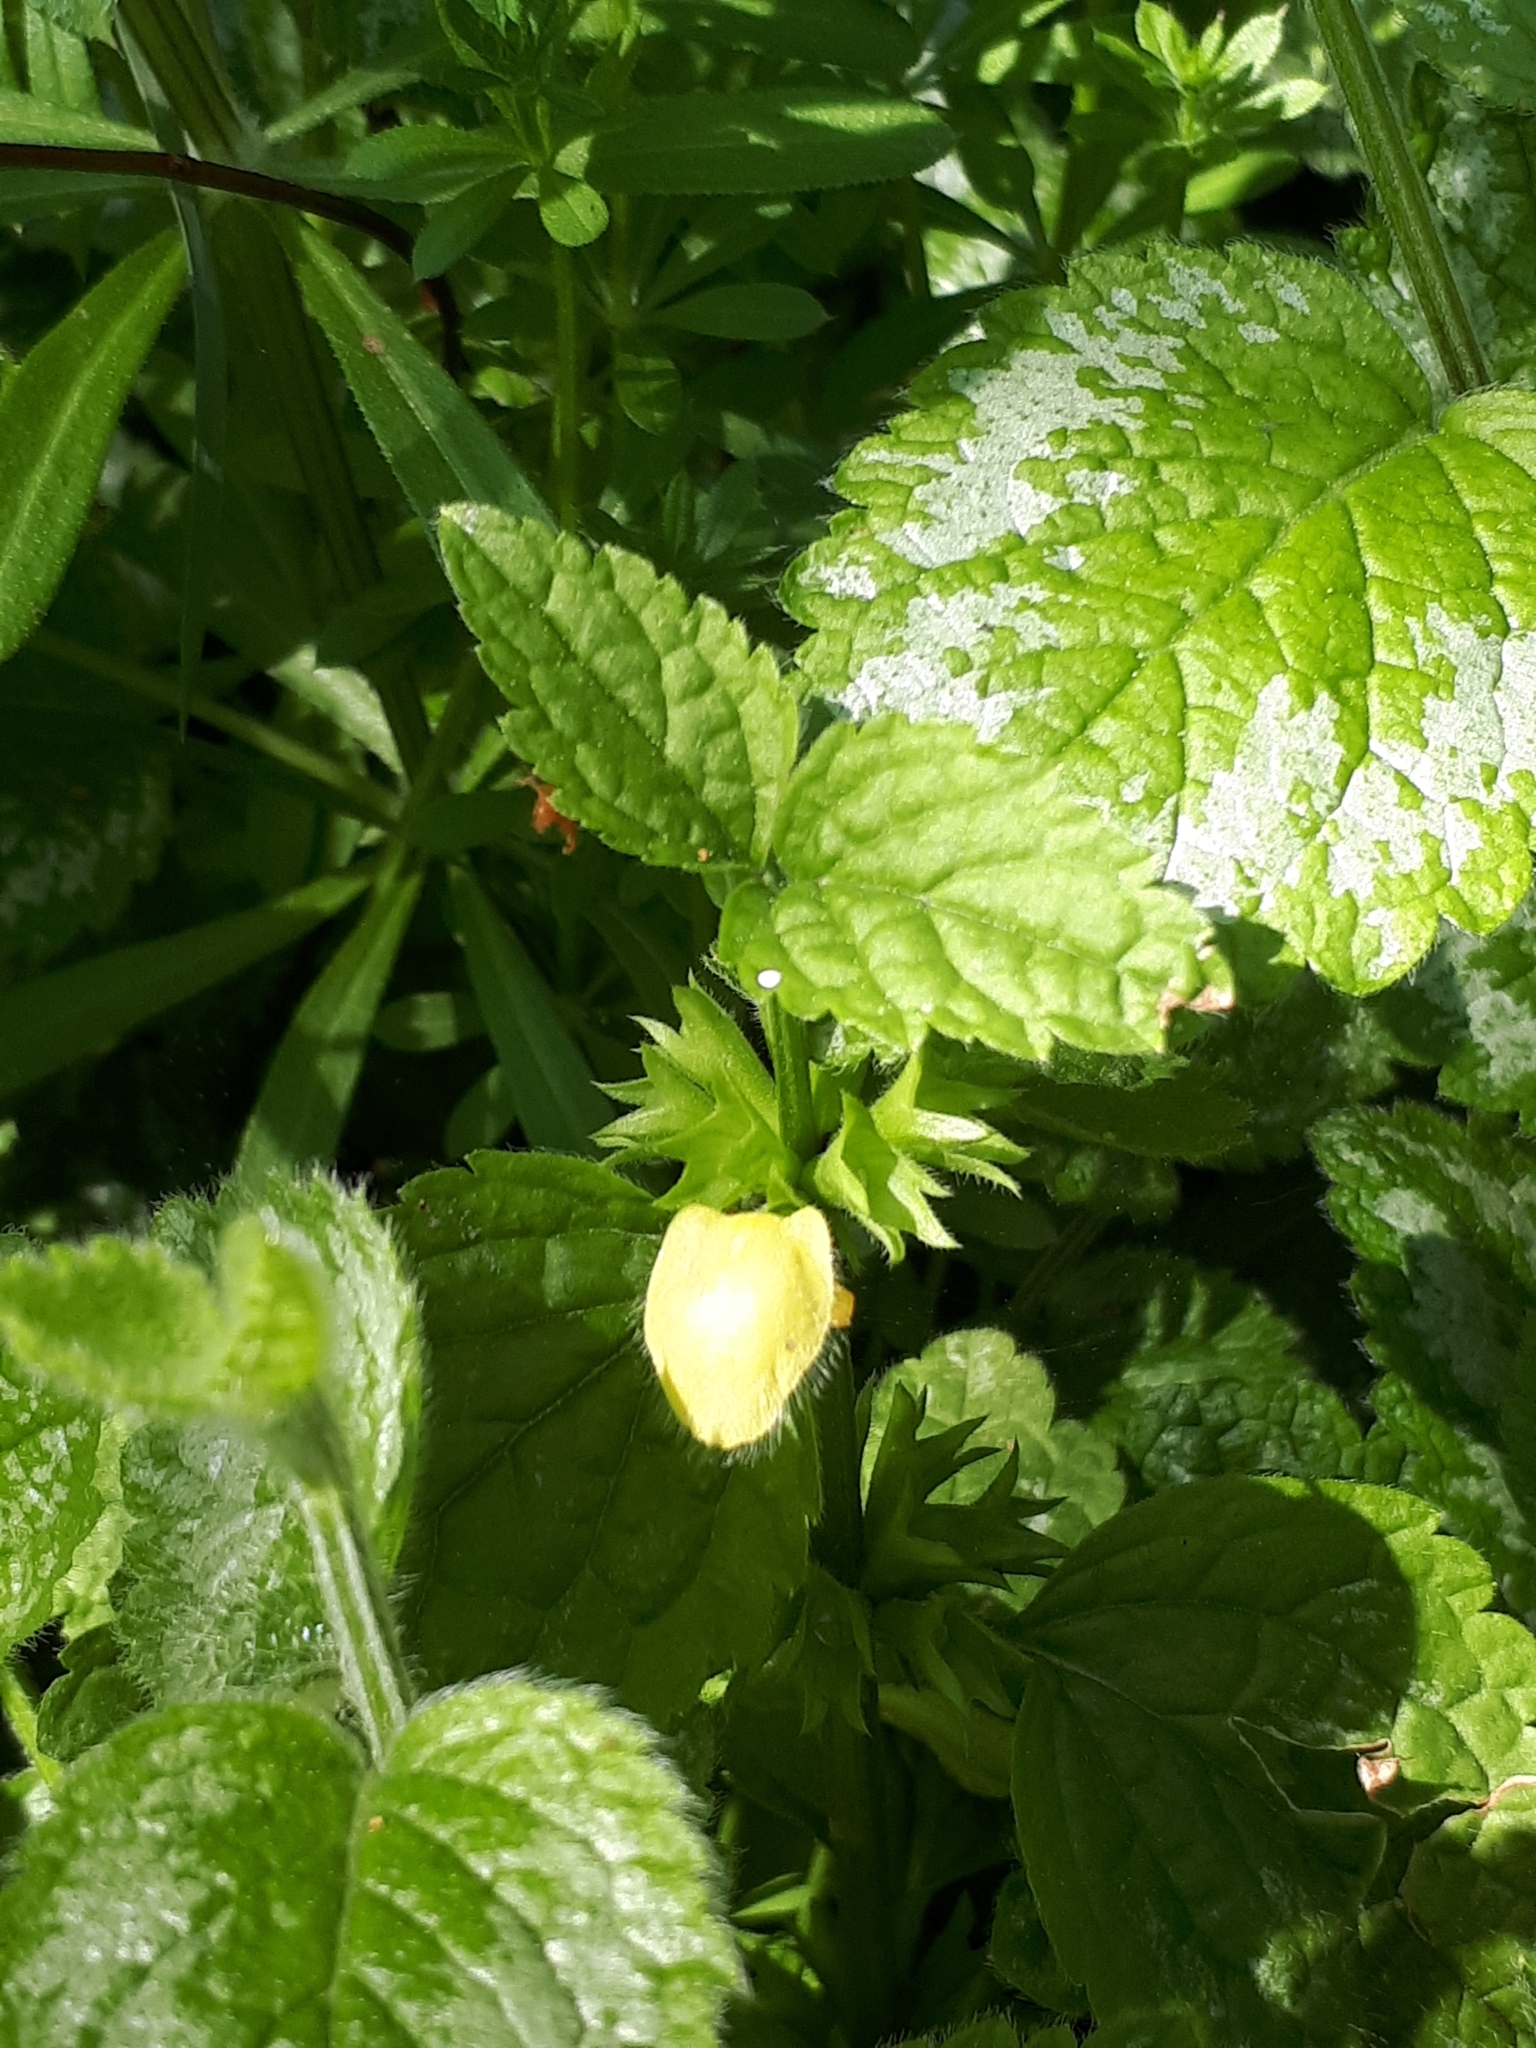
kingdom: Plantae
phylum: Tracheophyta
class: Magnoliopsida
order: Lamiales
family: Lamiaceae
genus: Lamium
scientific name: Lamium galeobdolon
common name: Yellow archangel
